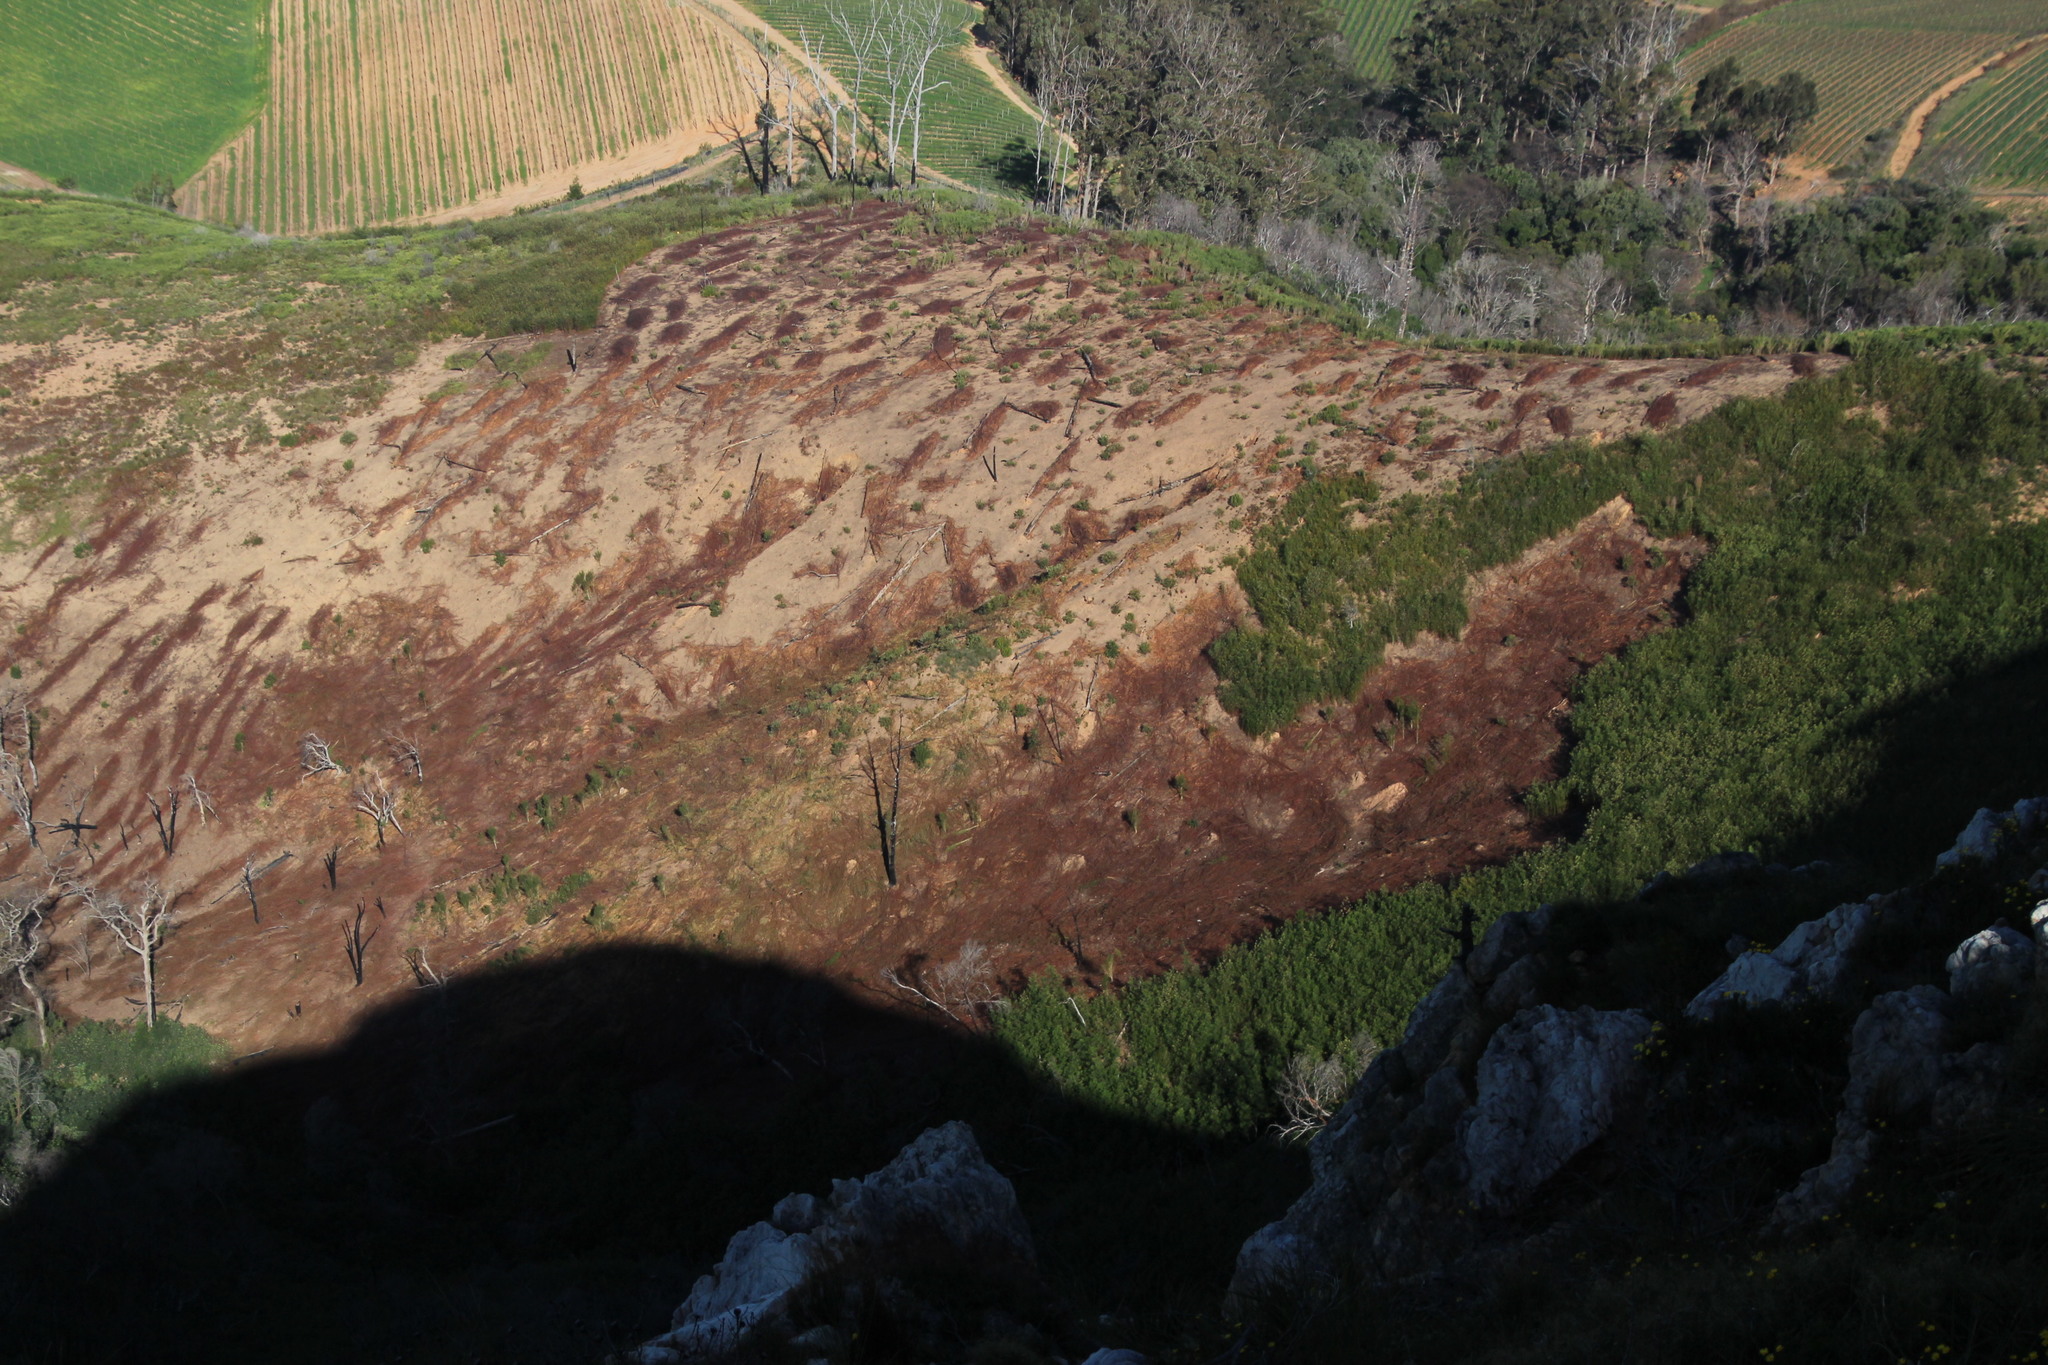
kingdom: Plantae
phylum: Tracheophyta
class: Magnoliopsida
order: Fabales
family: Fabaceae
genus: Paraserianthes
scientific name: Paraserianthes lophantha
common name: Plume albizia
